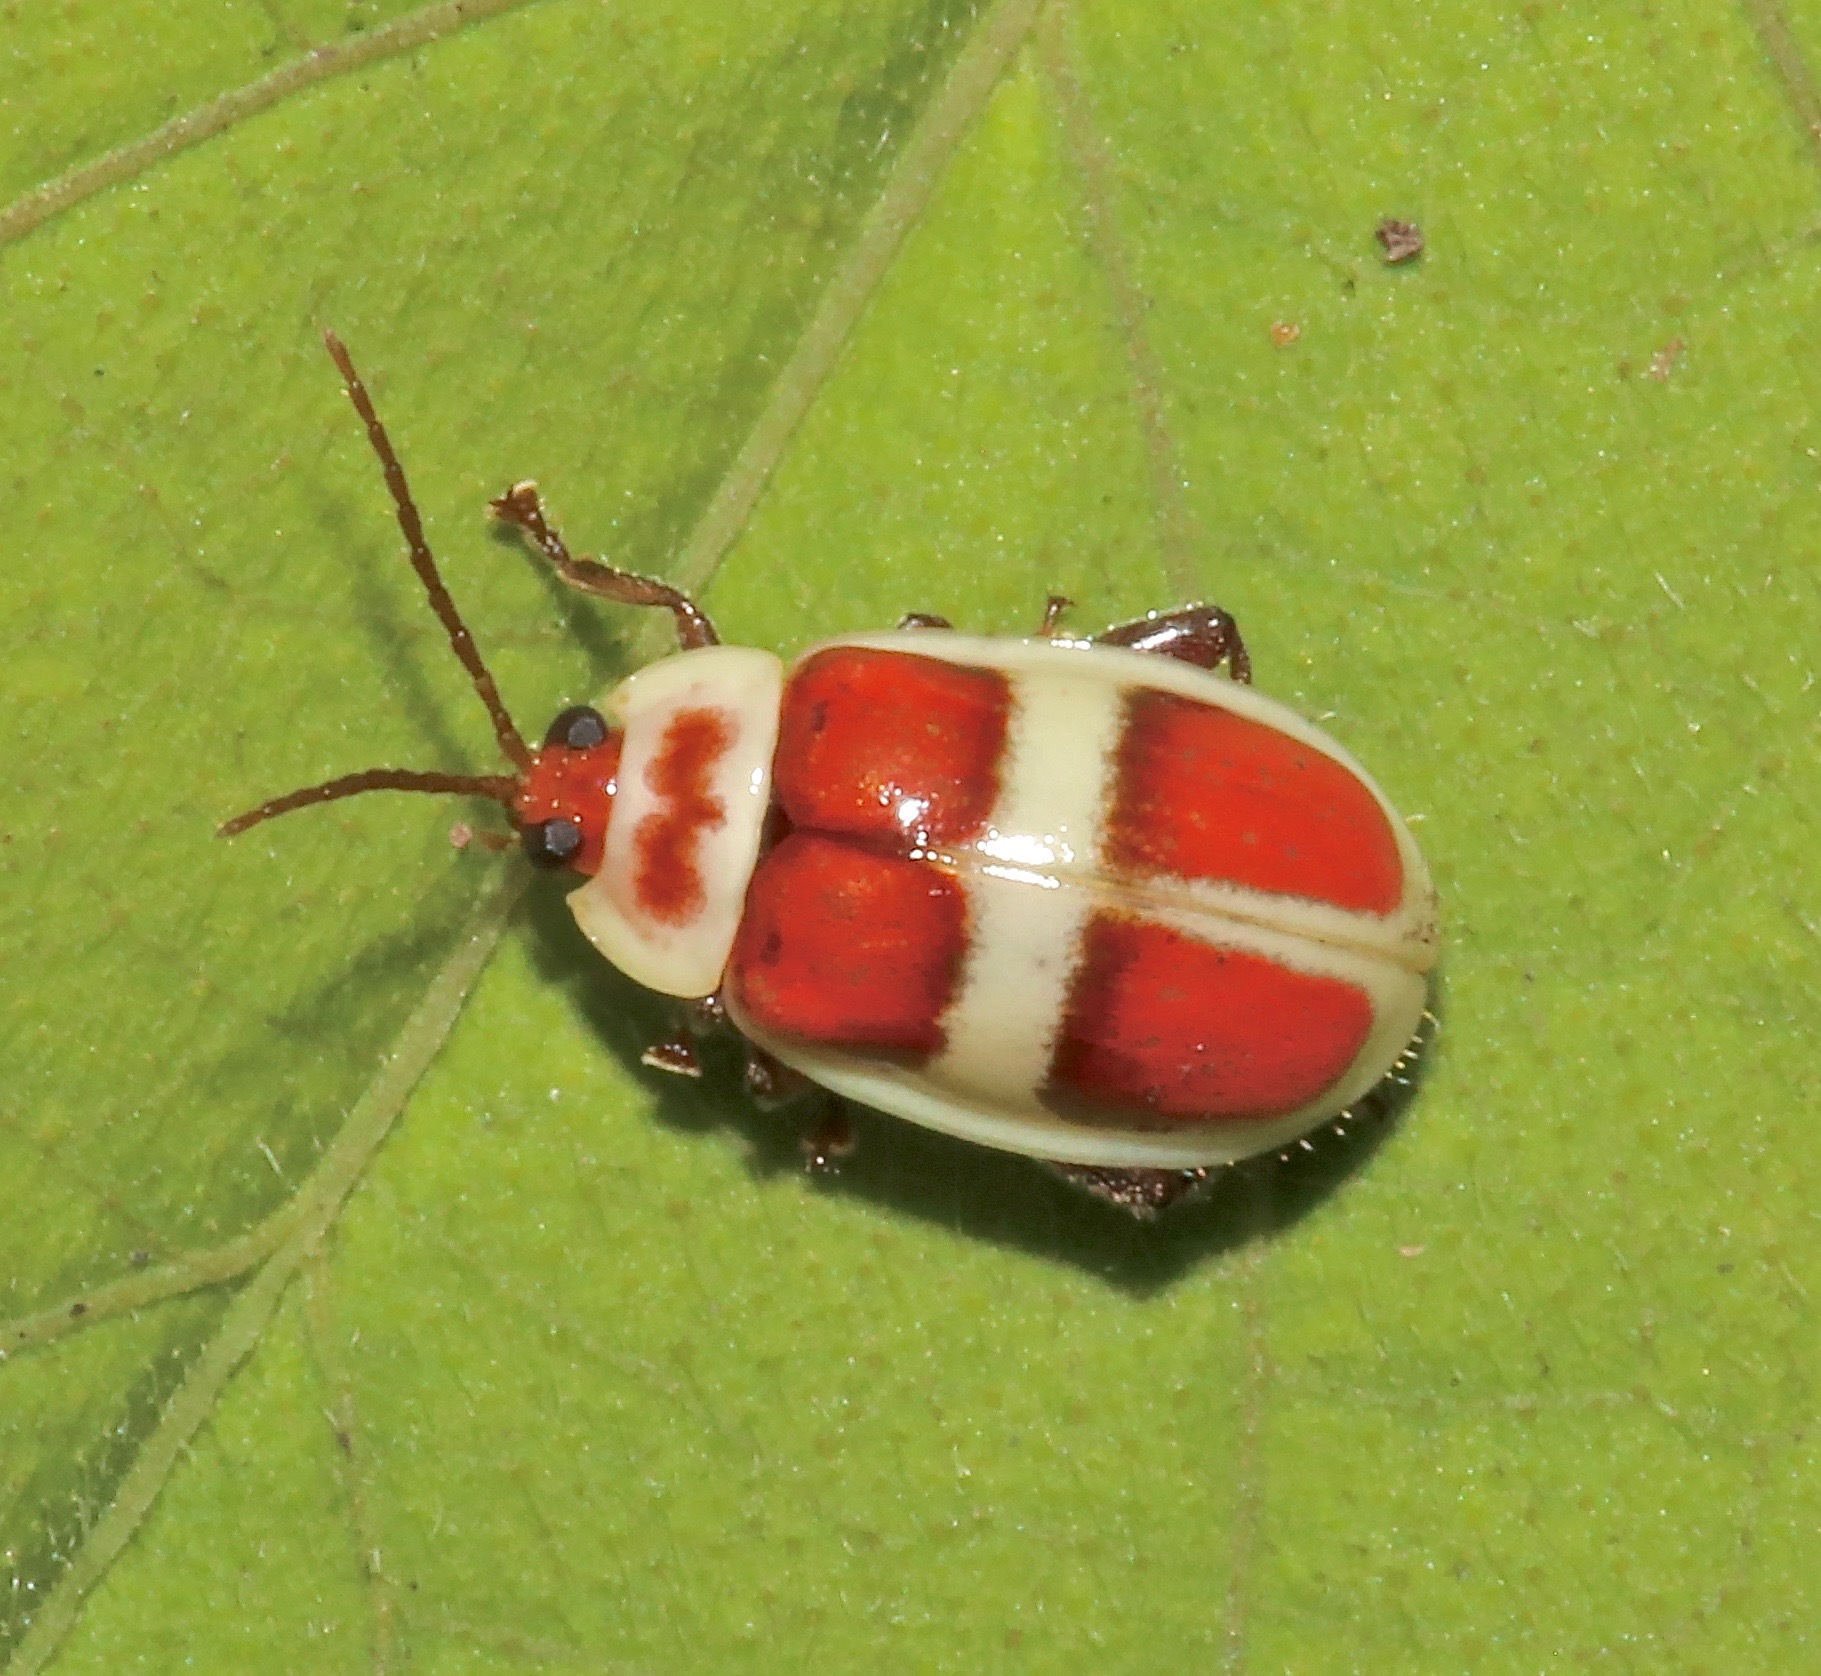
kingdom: Animalia
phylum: Arthropoda
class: Insecta
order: Coleoptera
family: Chrysomelidae
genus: Asphaera
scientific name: Asphaera discicollis
